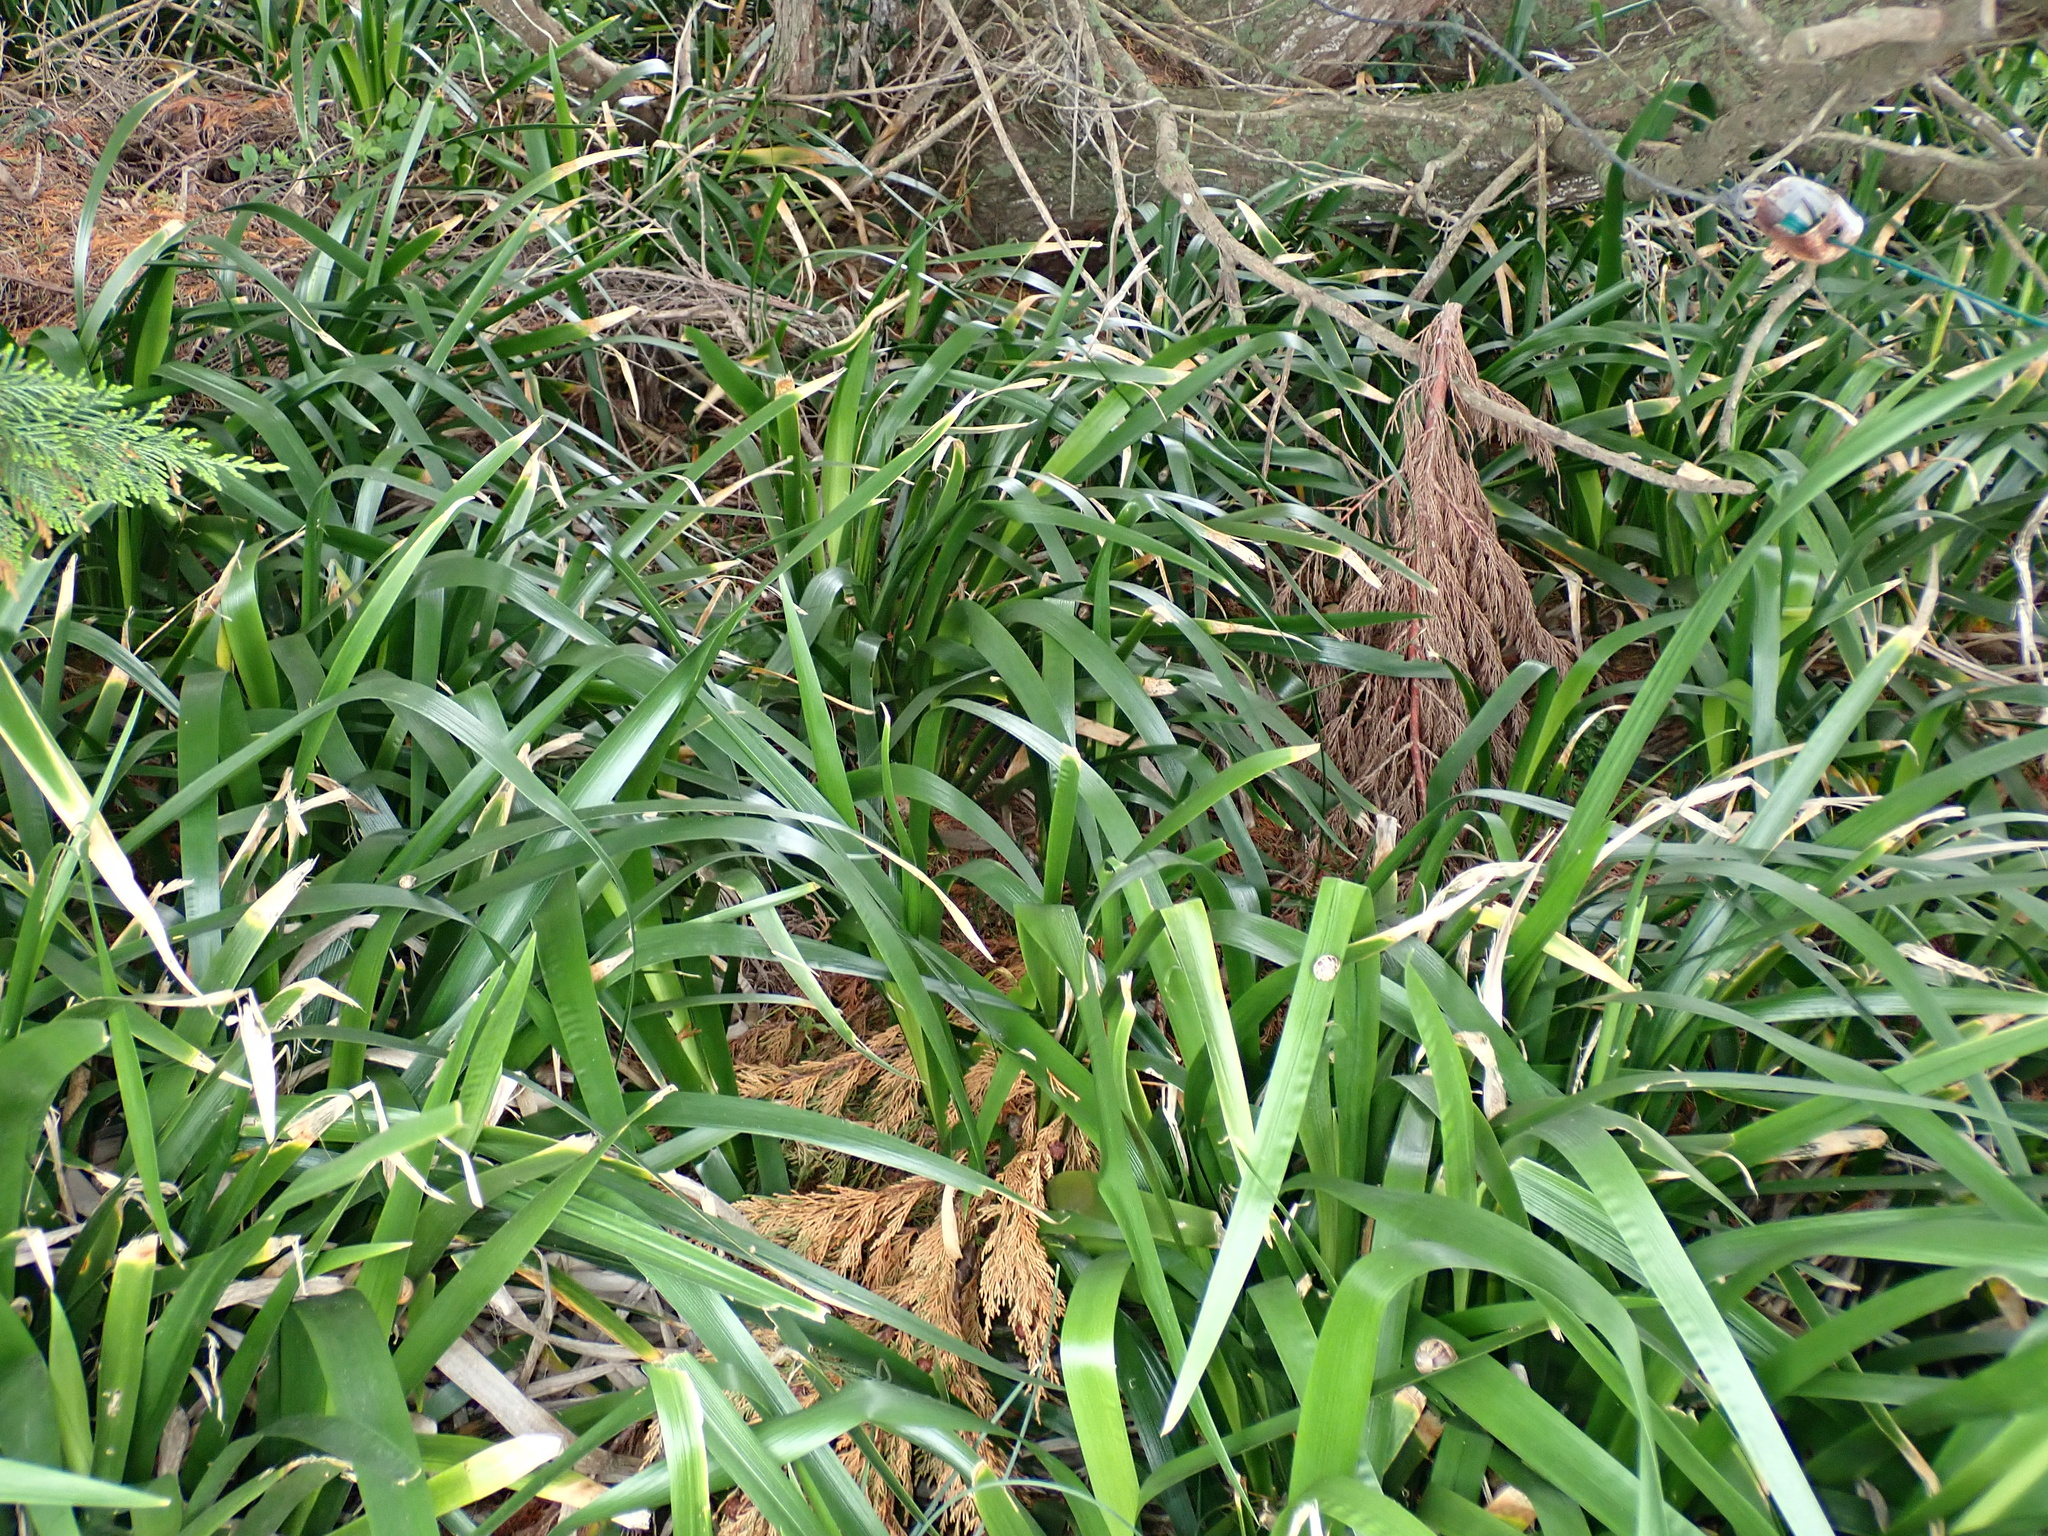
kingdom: Plantae
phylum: Tracheophyta
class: Liliopsida
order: Asparagales
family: Iridaceae
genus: Iris
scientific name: Iris foetidissima
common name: Stinking iris
